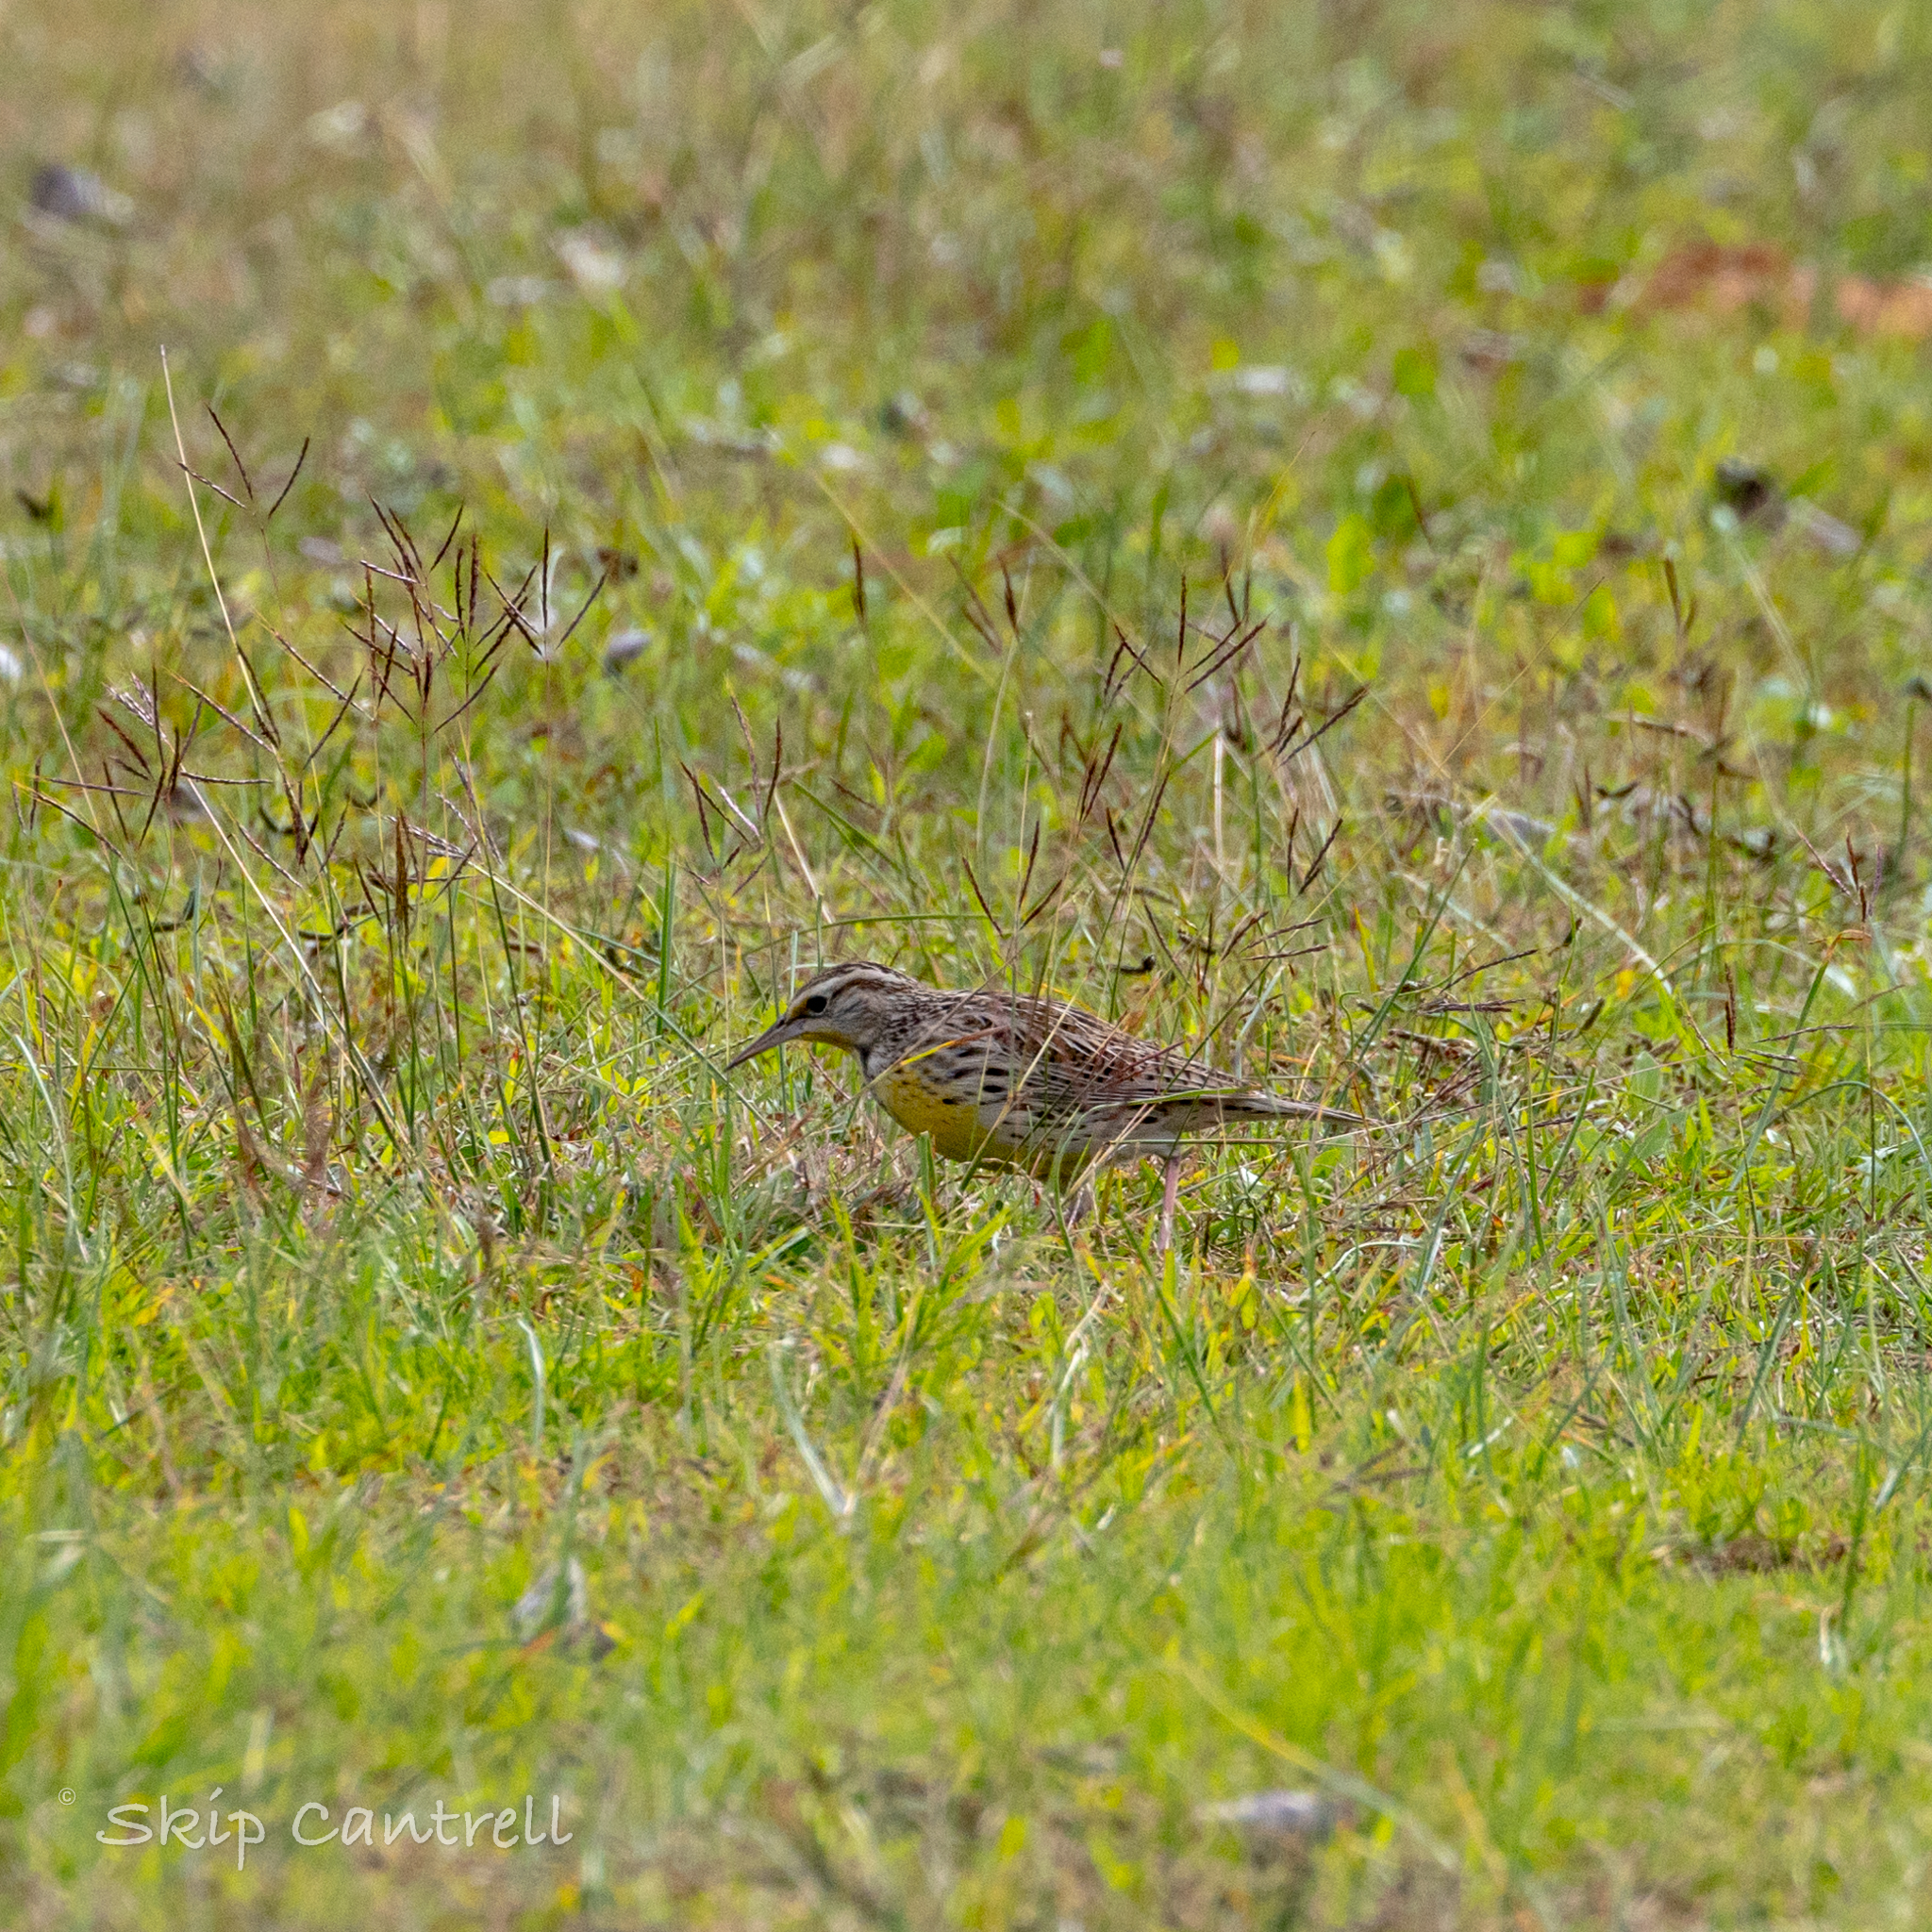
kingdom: Animalia
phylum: Chordata
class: Aves
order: Passeriformes
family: Icteridae
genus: Sturnella
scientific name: Sturnella neglecta
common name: Western meadowlark
